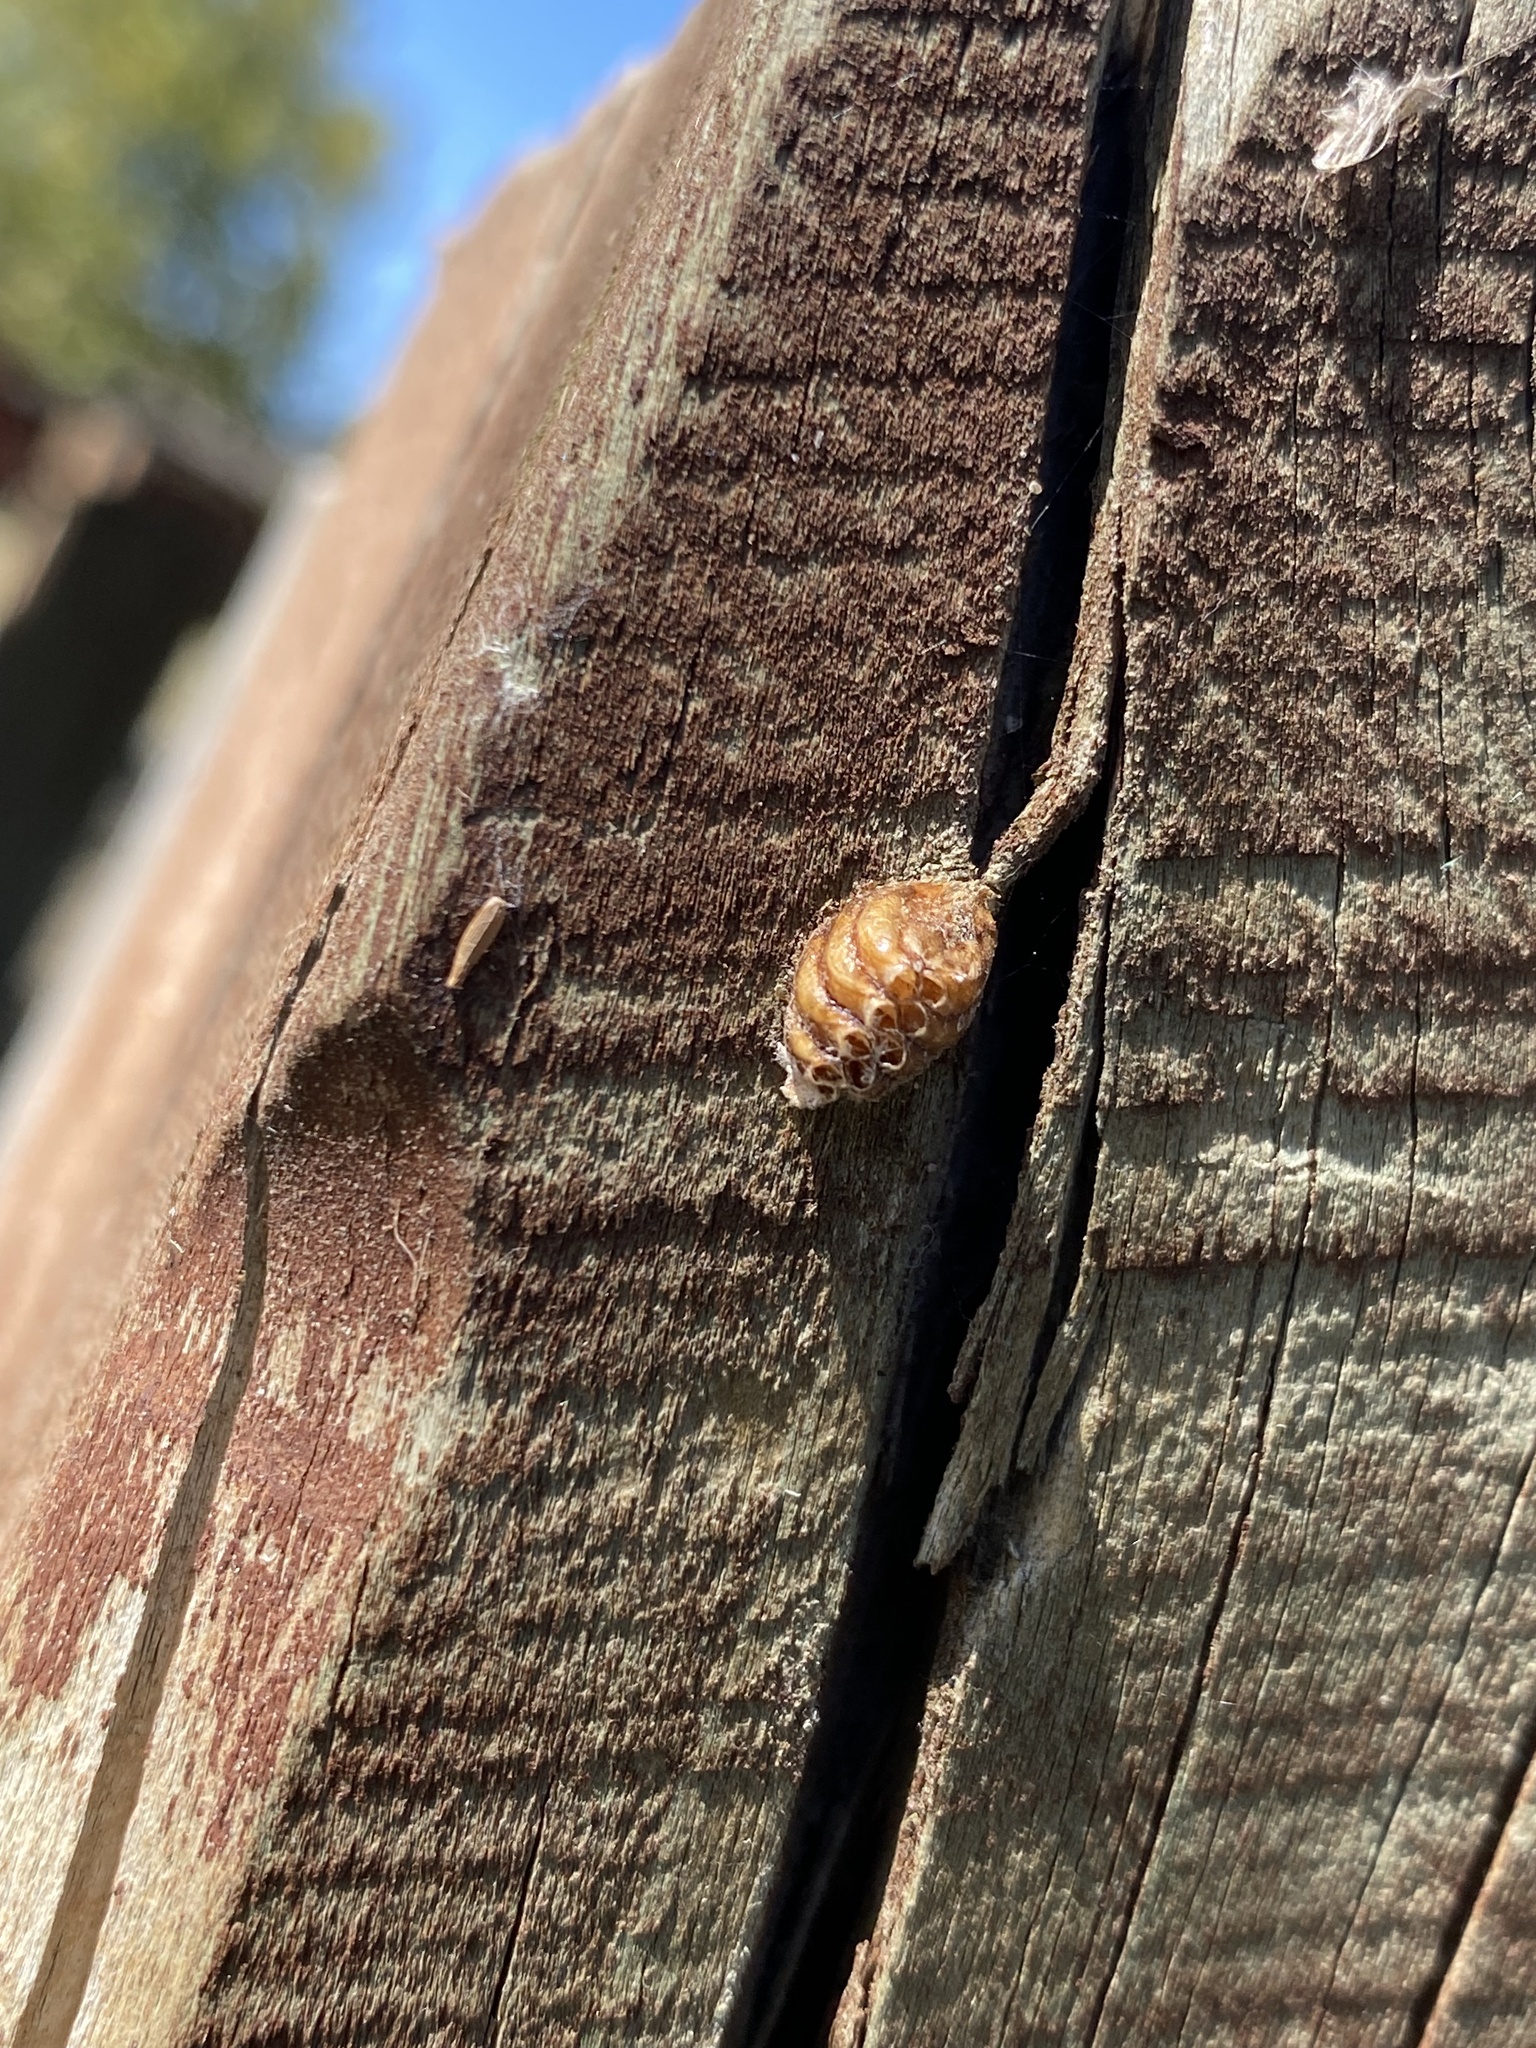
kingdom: Animalia
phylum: Arthropoda
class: Insecta
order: Mantodea
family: Mantidae
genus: Orthodera
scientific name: Orthodera novaezealandiae
